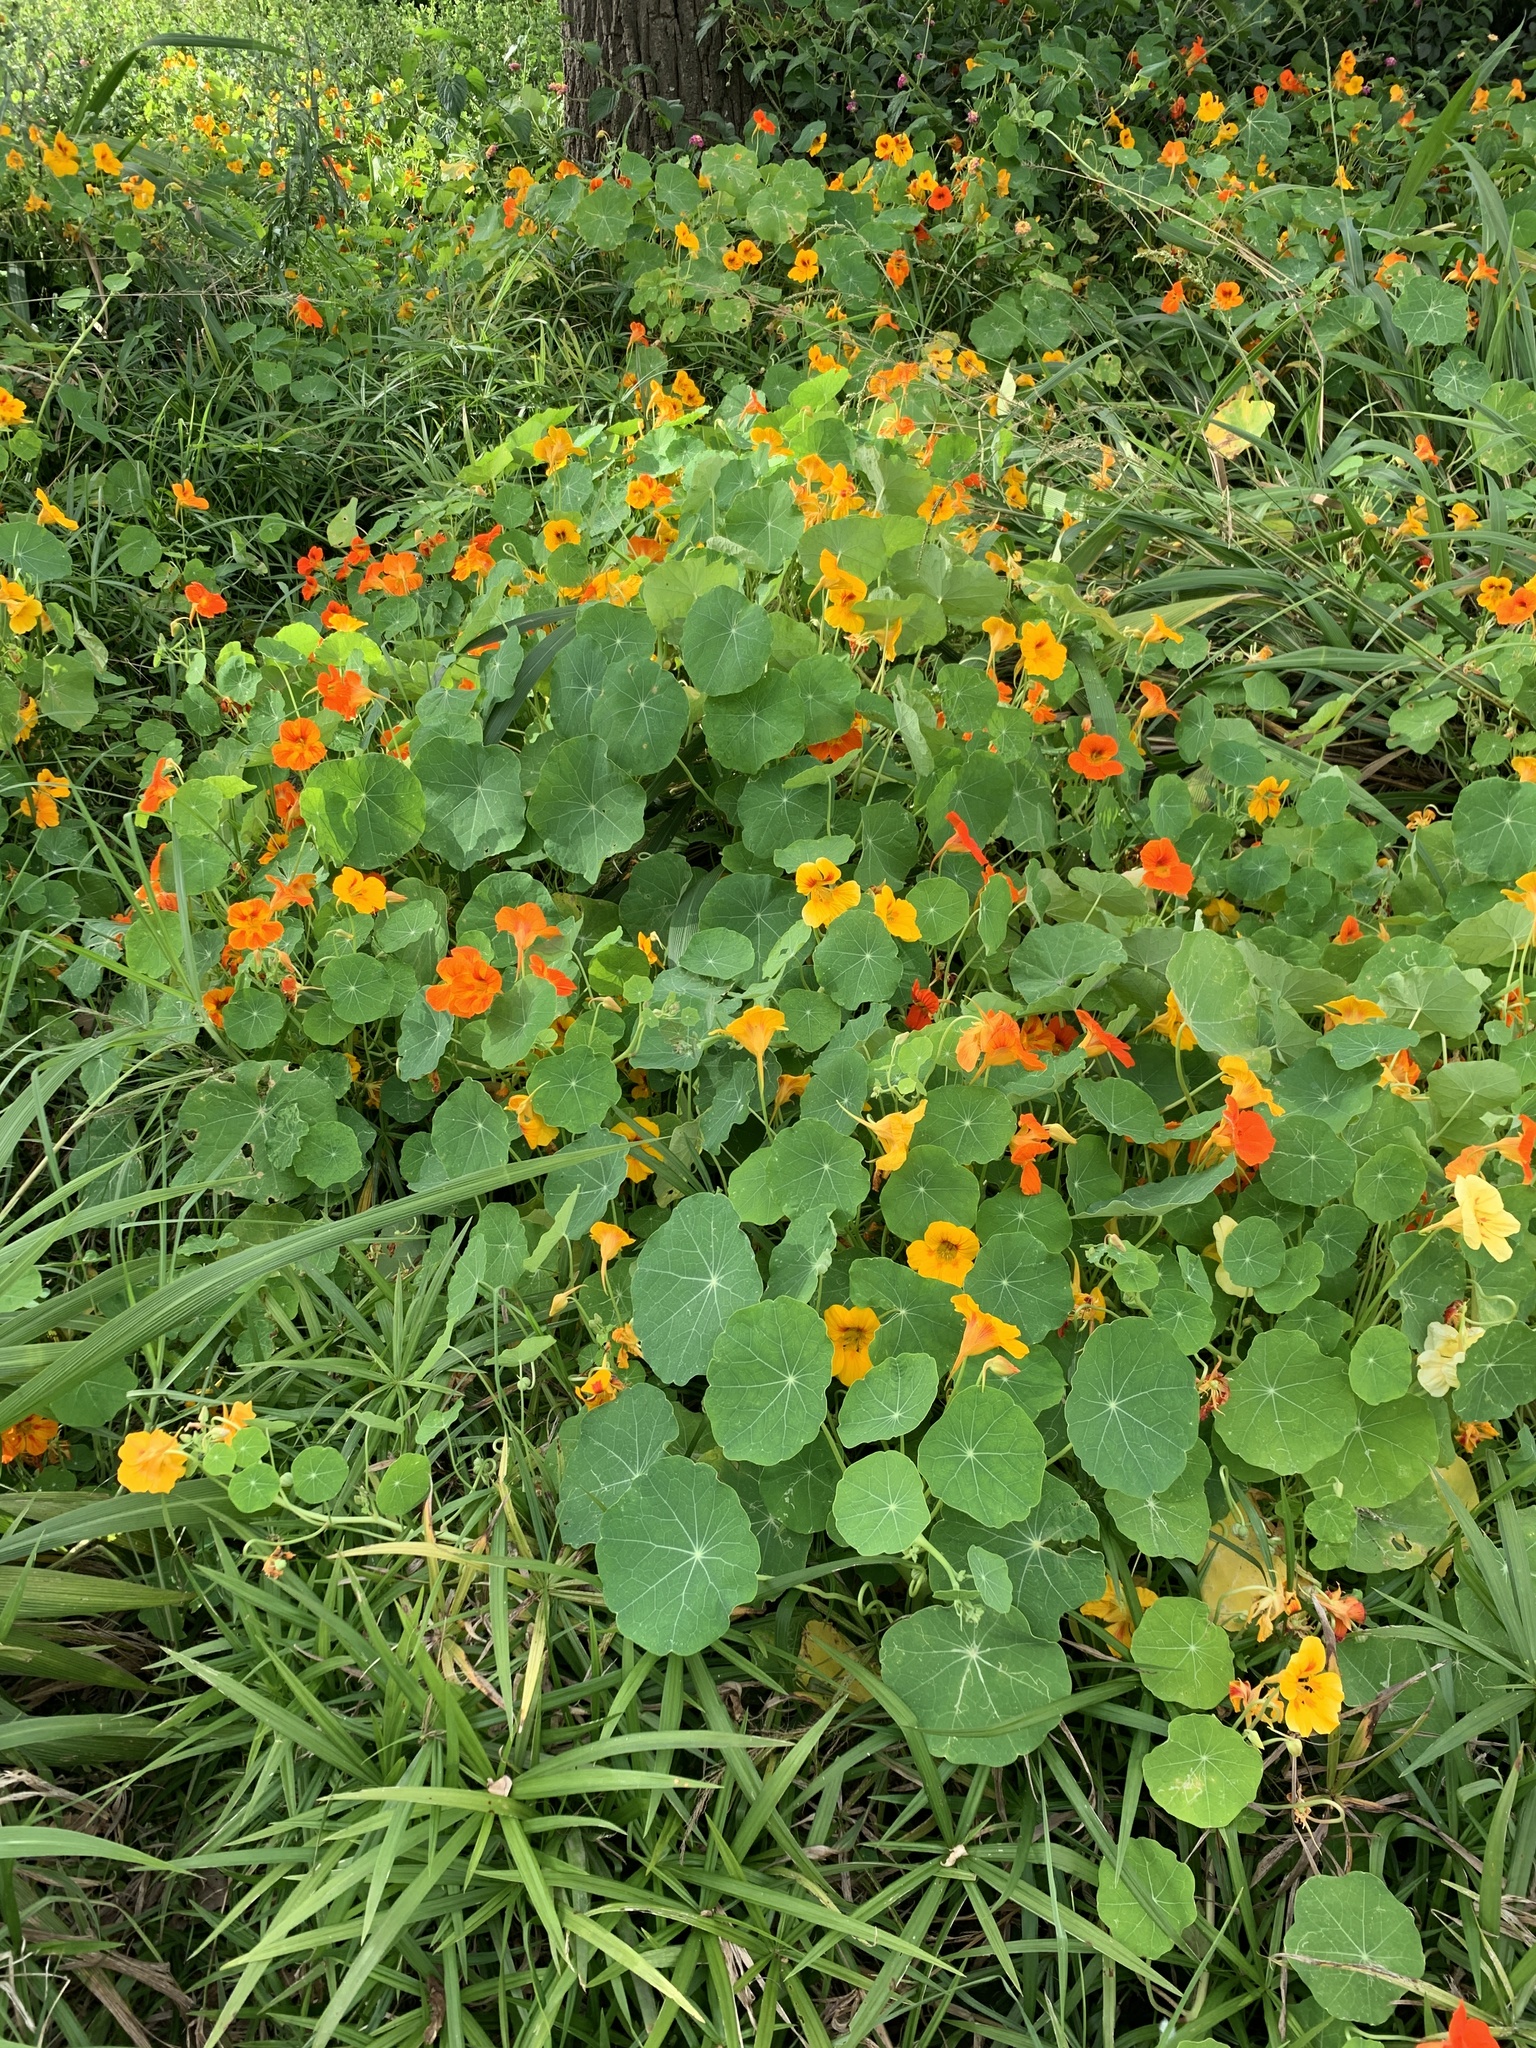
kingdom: Plantae
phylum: Tracheophyta
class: Magnoliopsida
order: Brassicales
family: Tropaeolaceae
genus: Tropaeolum
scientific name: Tropaeolum majus
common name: Nasturtium
